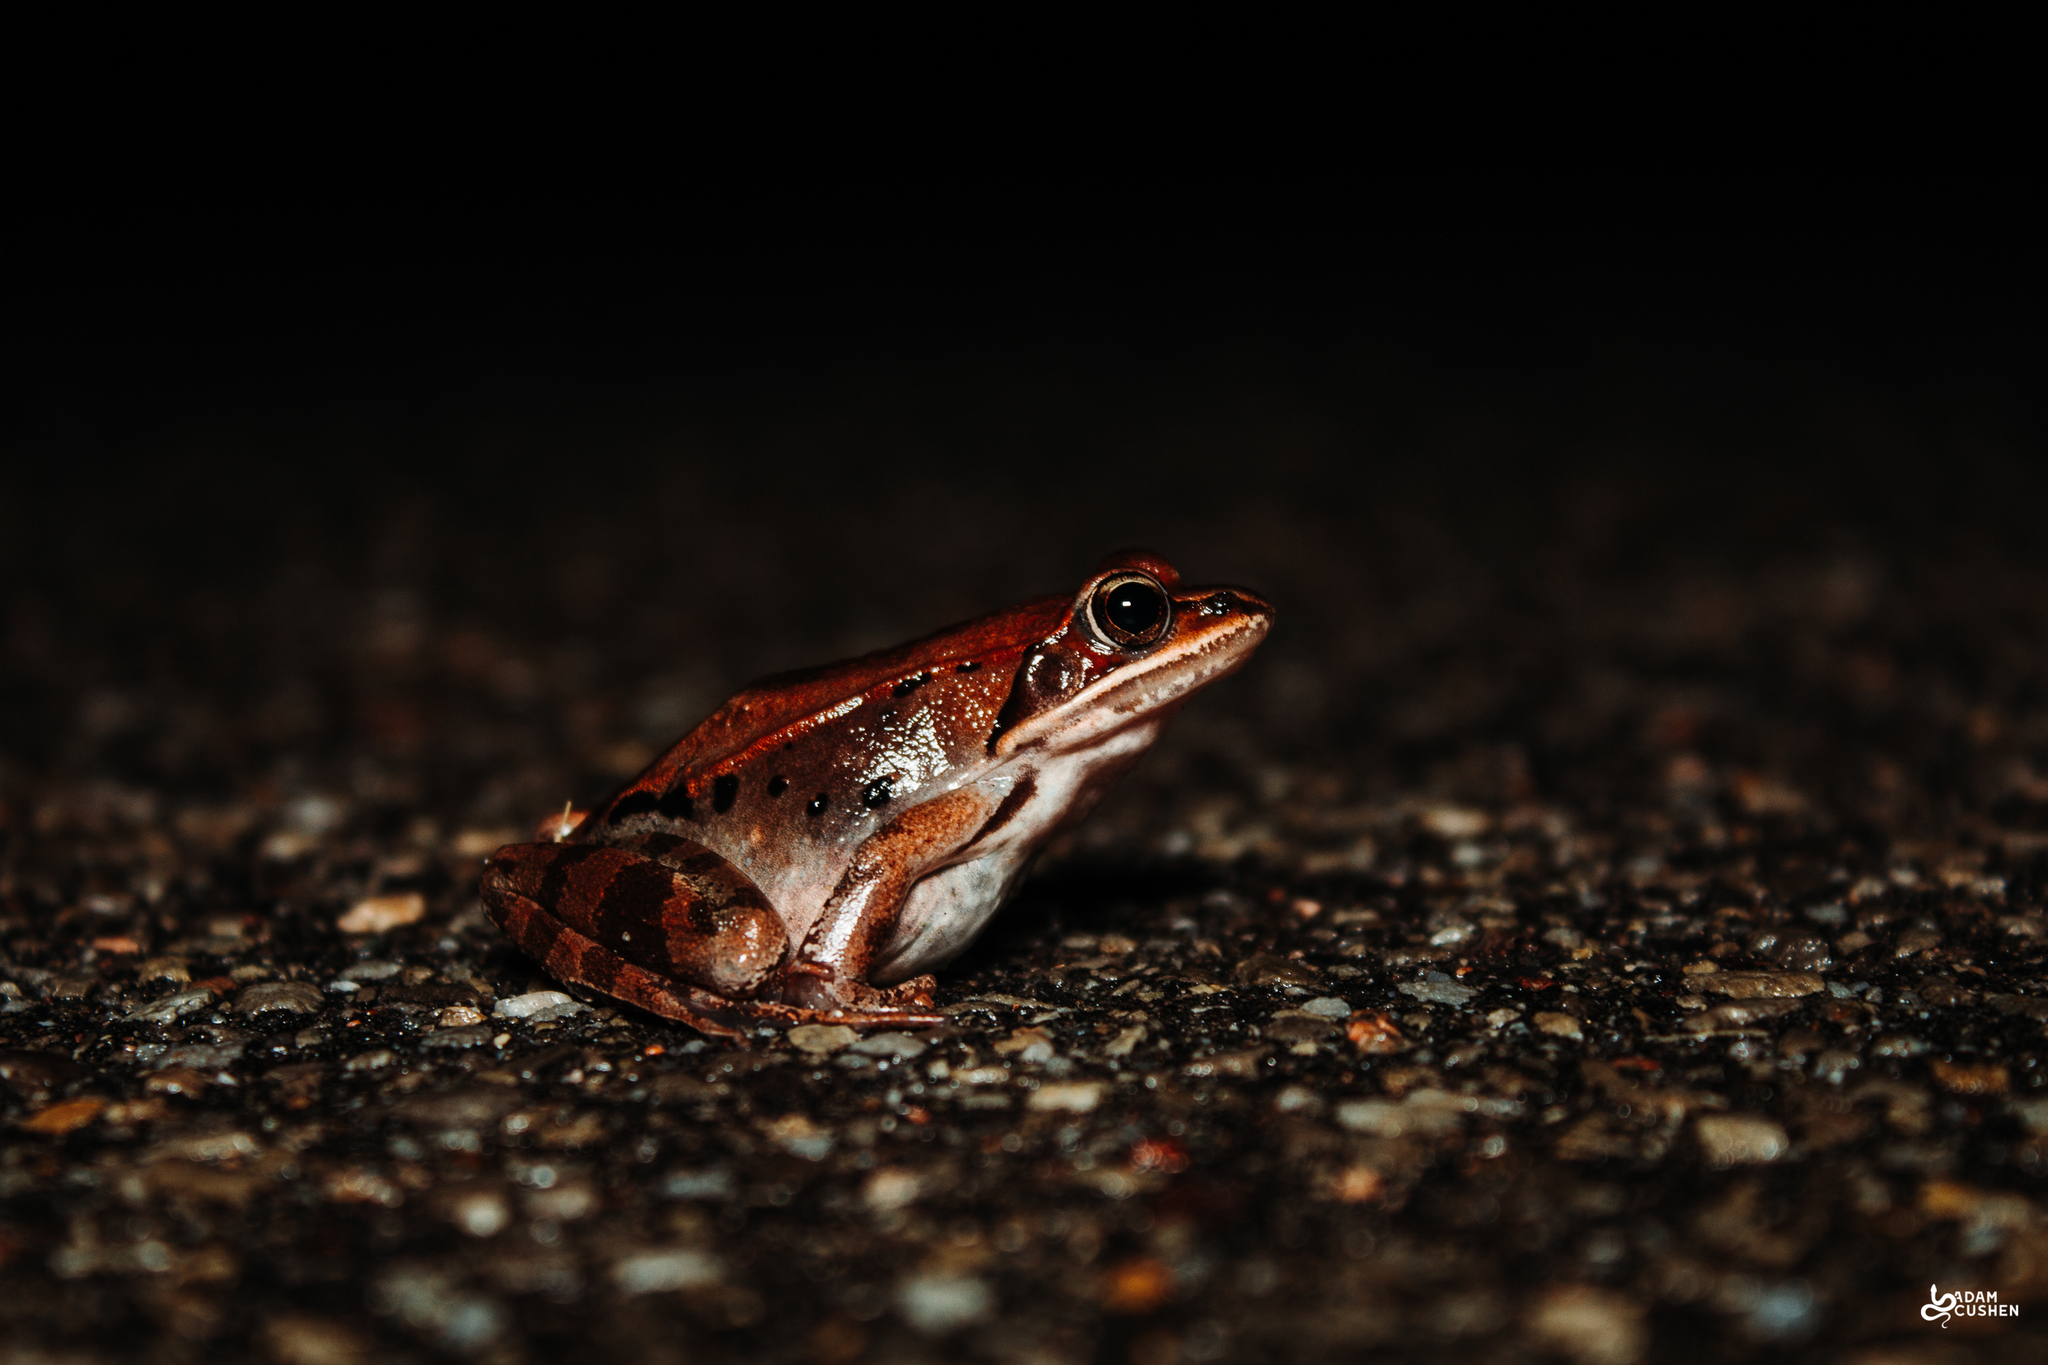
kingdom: Animalia
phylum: Chordata
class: Amphibia
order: Anura
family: Ranidae
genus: Lithobates
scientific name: Lithobates sylvaticus
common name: Wood frog
